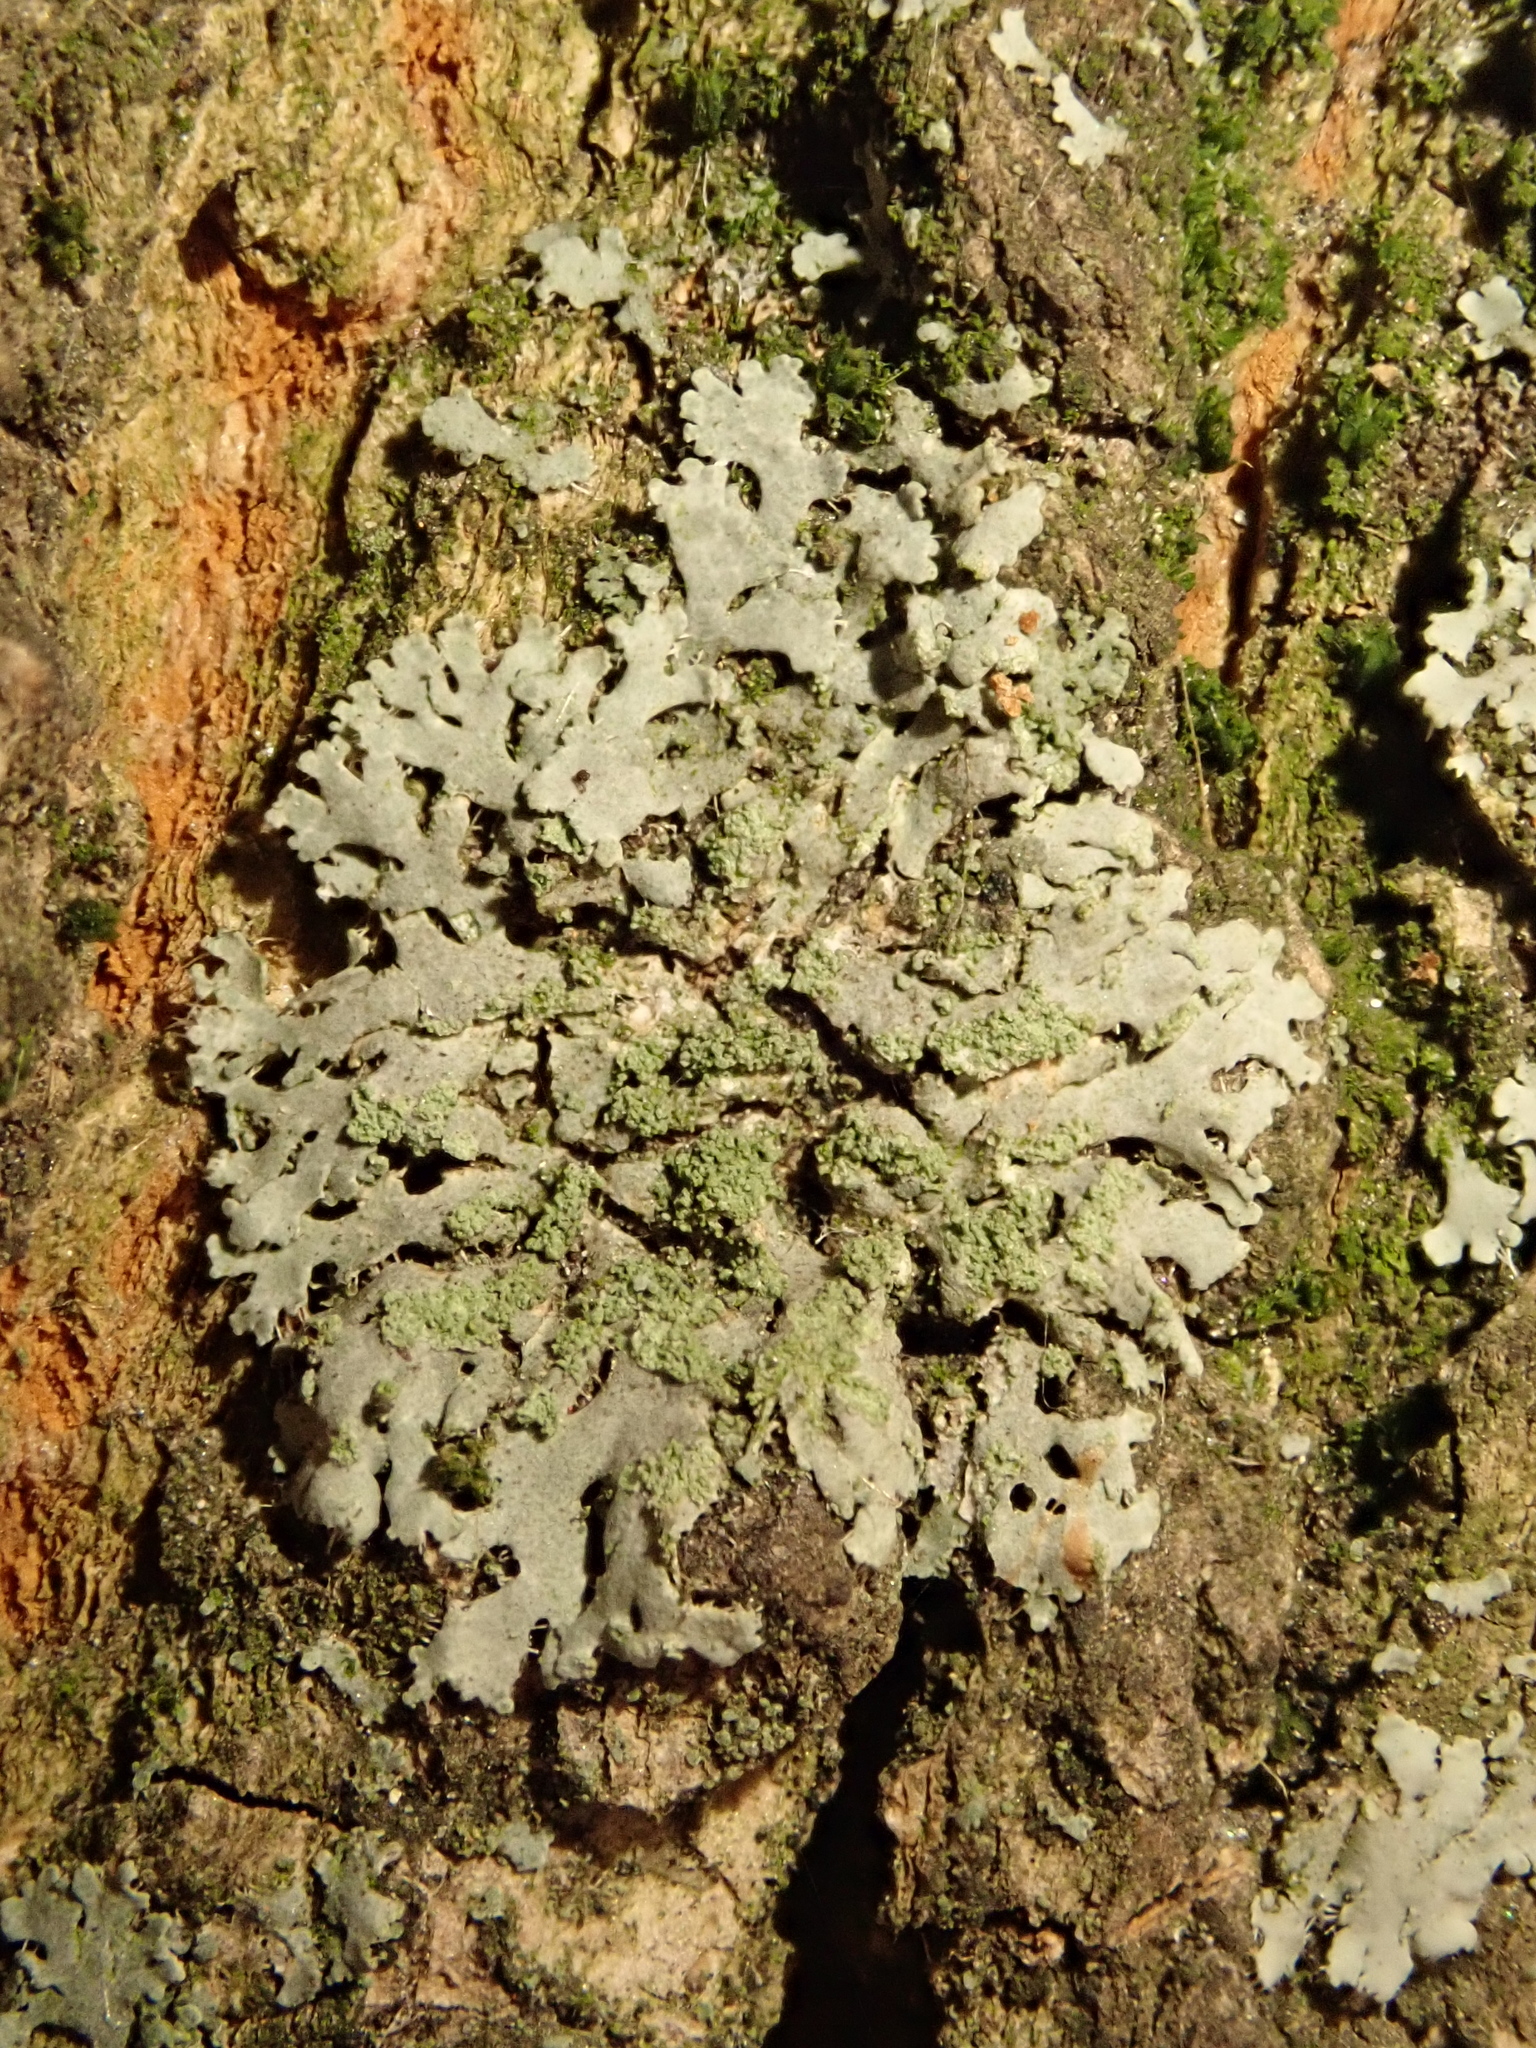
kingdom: Fungi
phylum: Ascomycota
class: Lecanoromycetes
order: Caliciales
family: Physciaceae
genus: Phaeophyscia
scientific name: Phaeophyscia orbicularis
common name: Mealy shadow lichen
